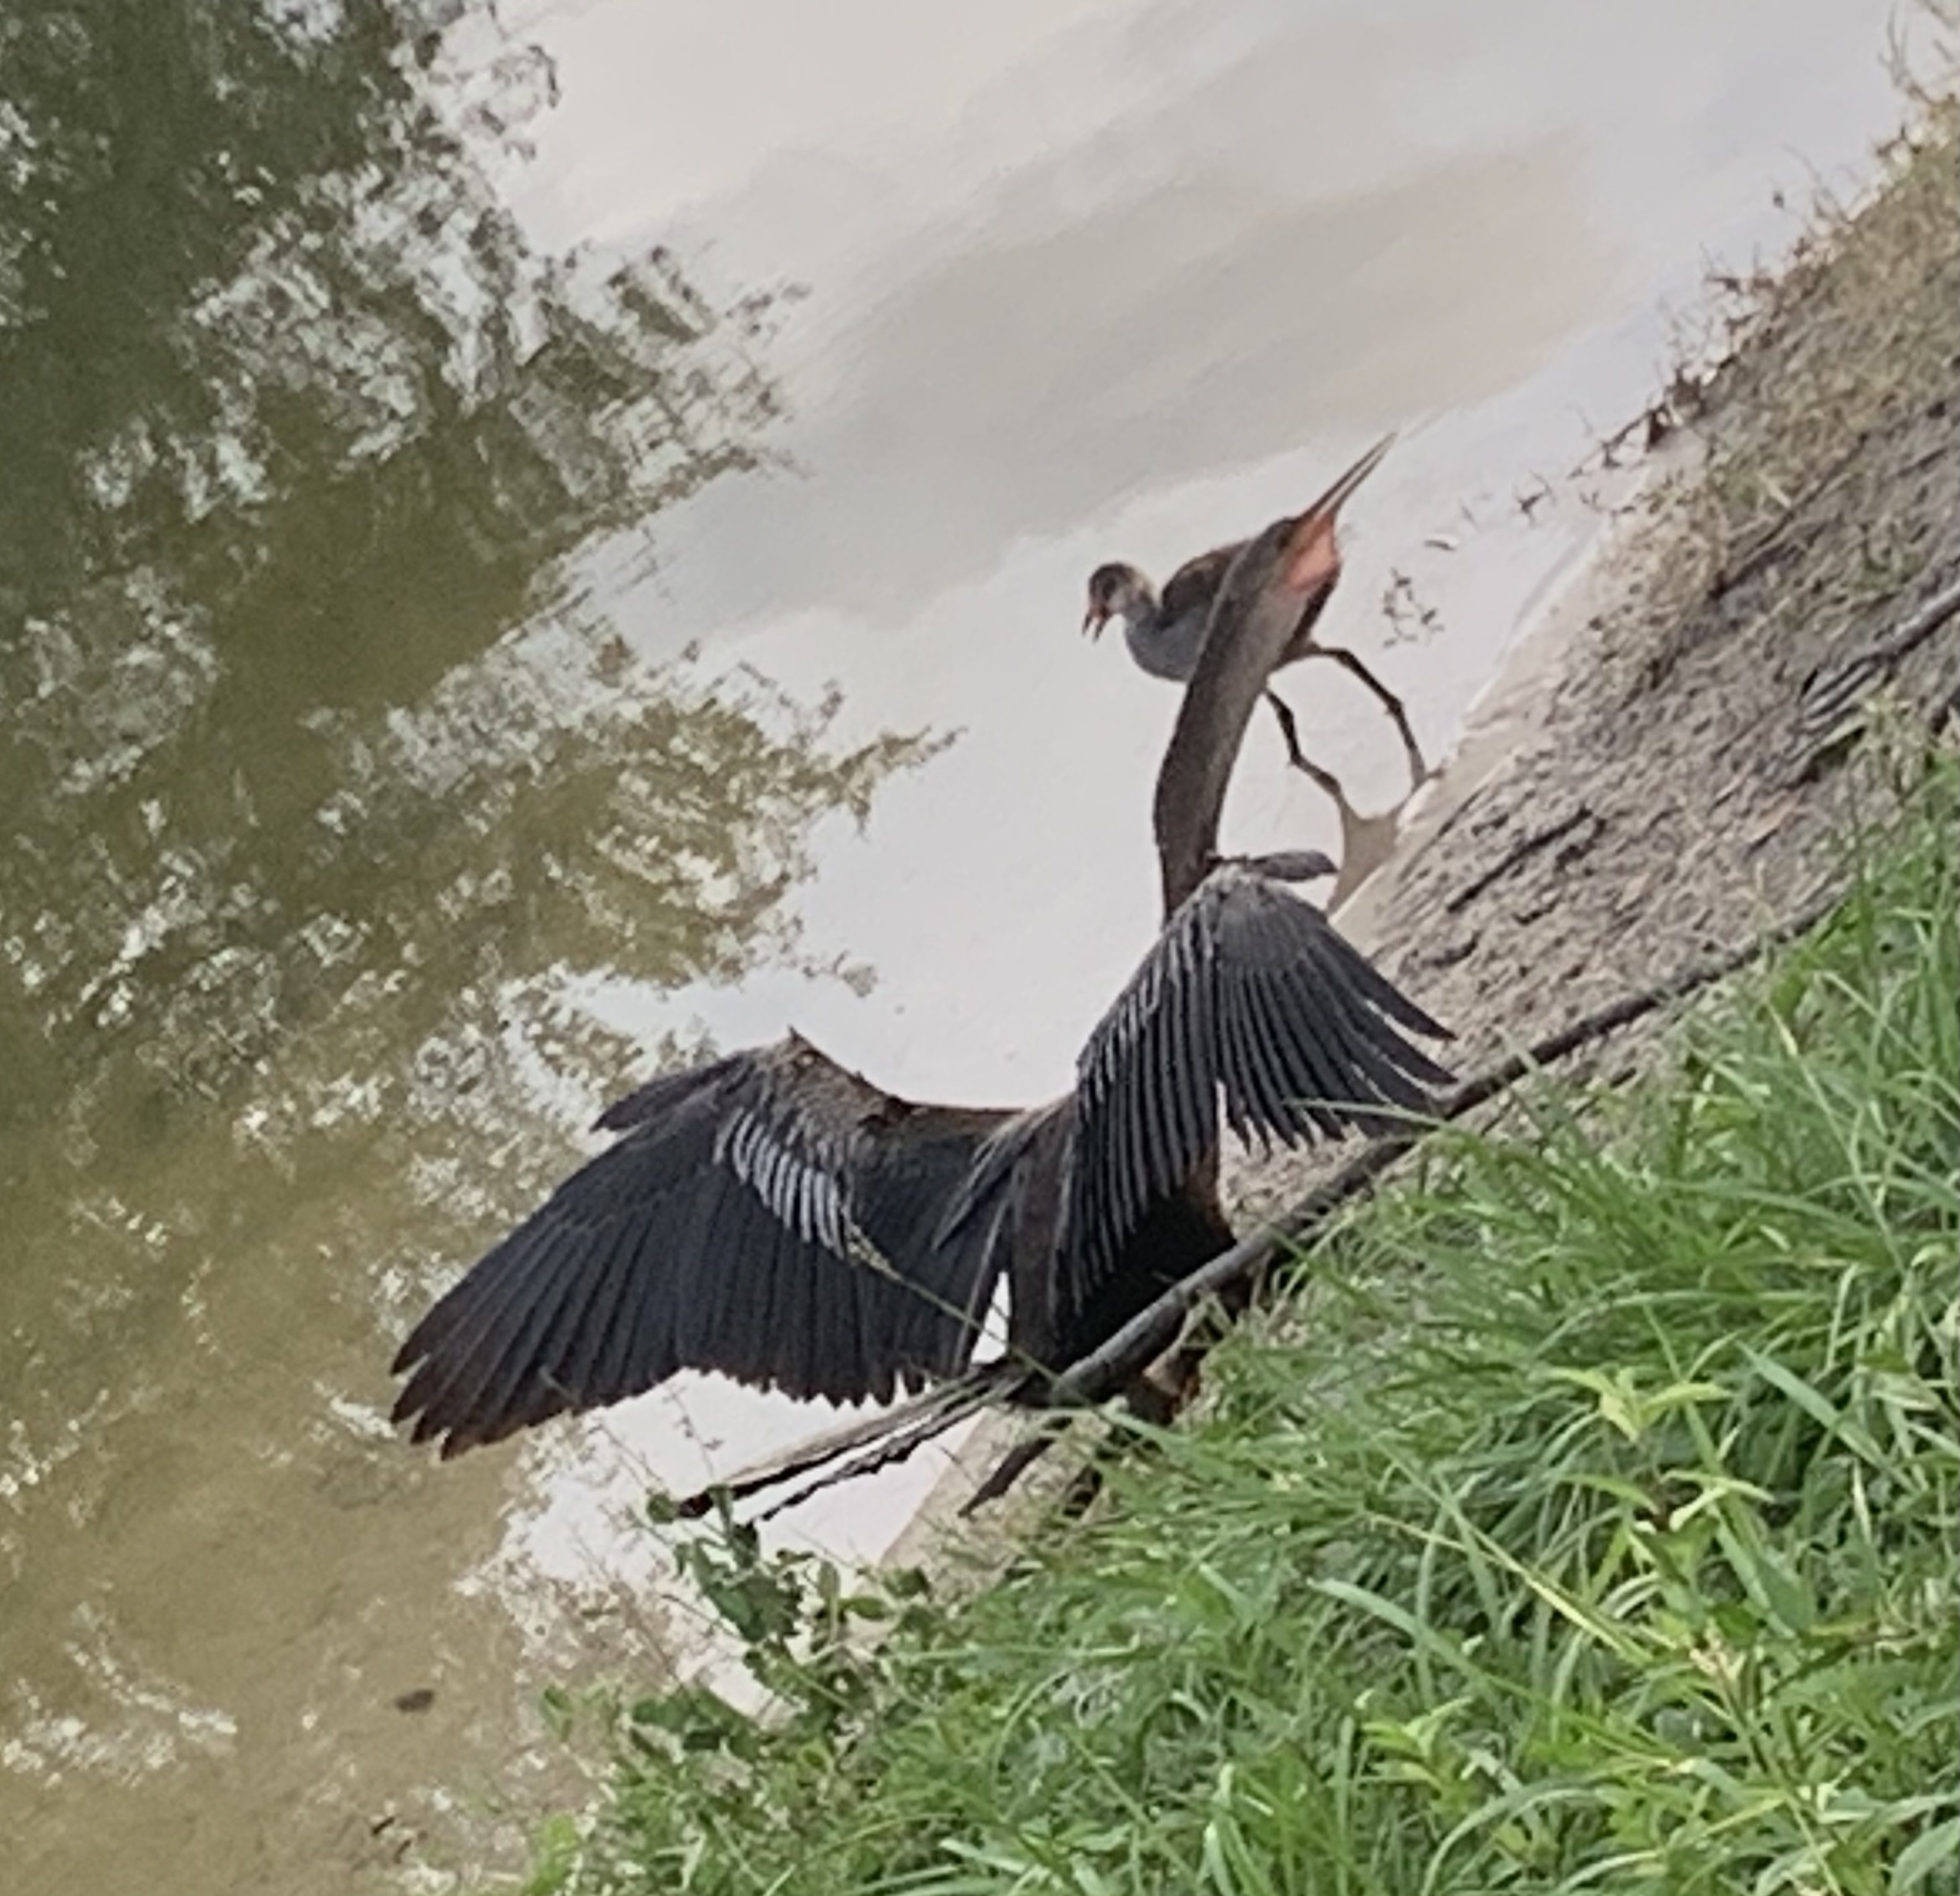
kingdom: Animalia
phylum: Chordata
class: Aves
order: Suliformes
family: Anhingidae
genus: Anhinga
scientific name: Anhinga anhinga
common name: Anhinga
